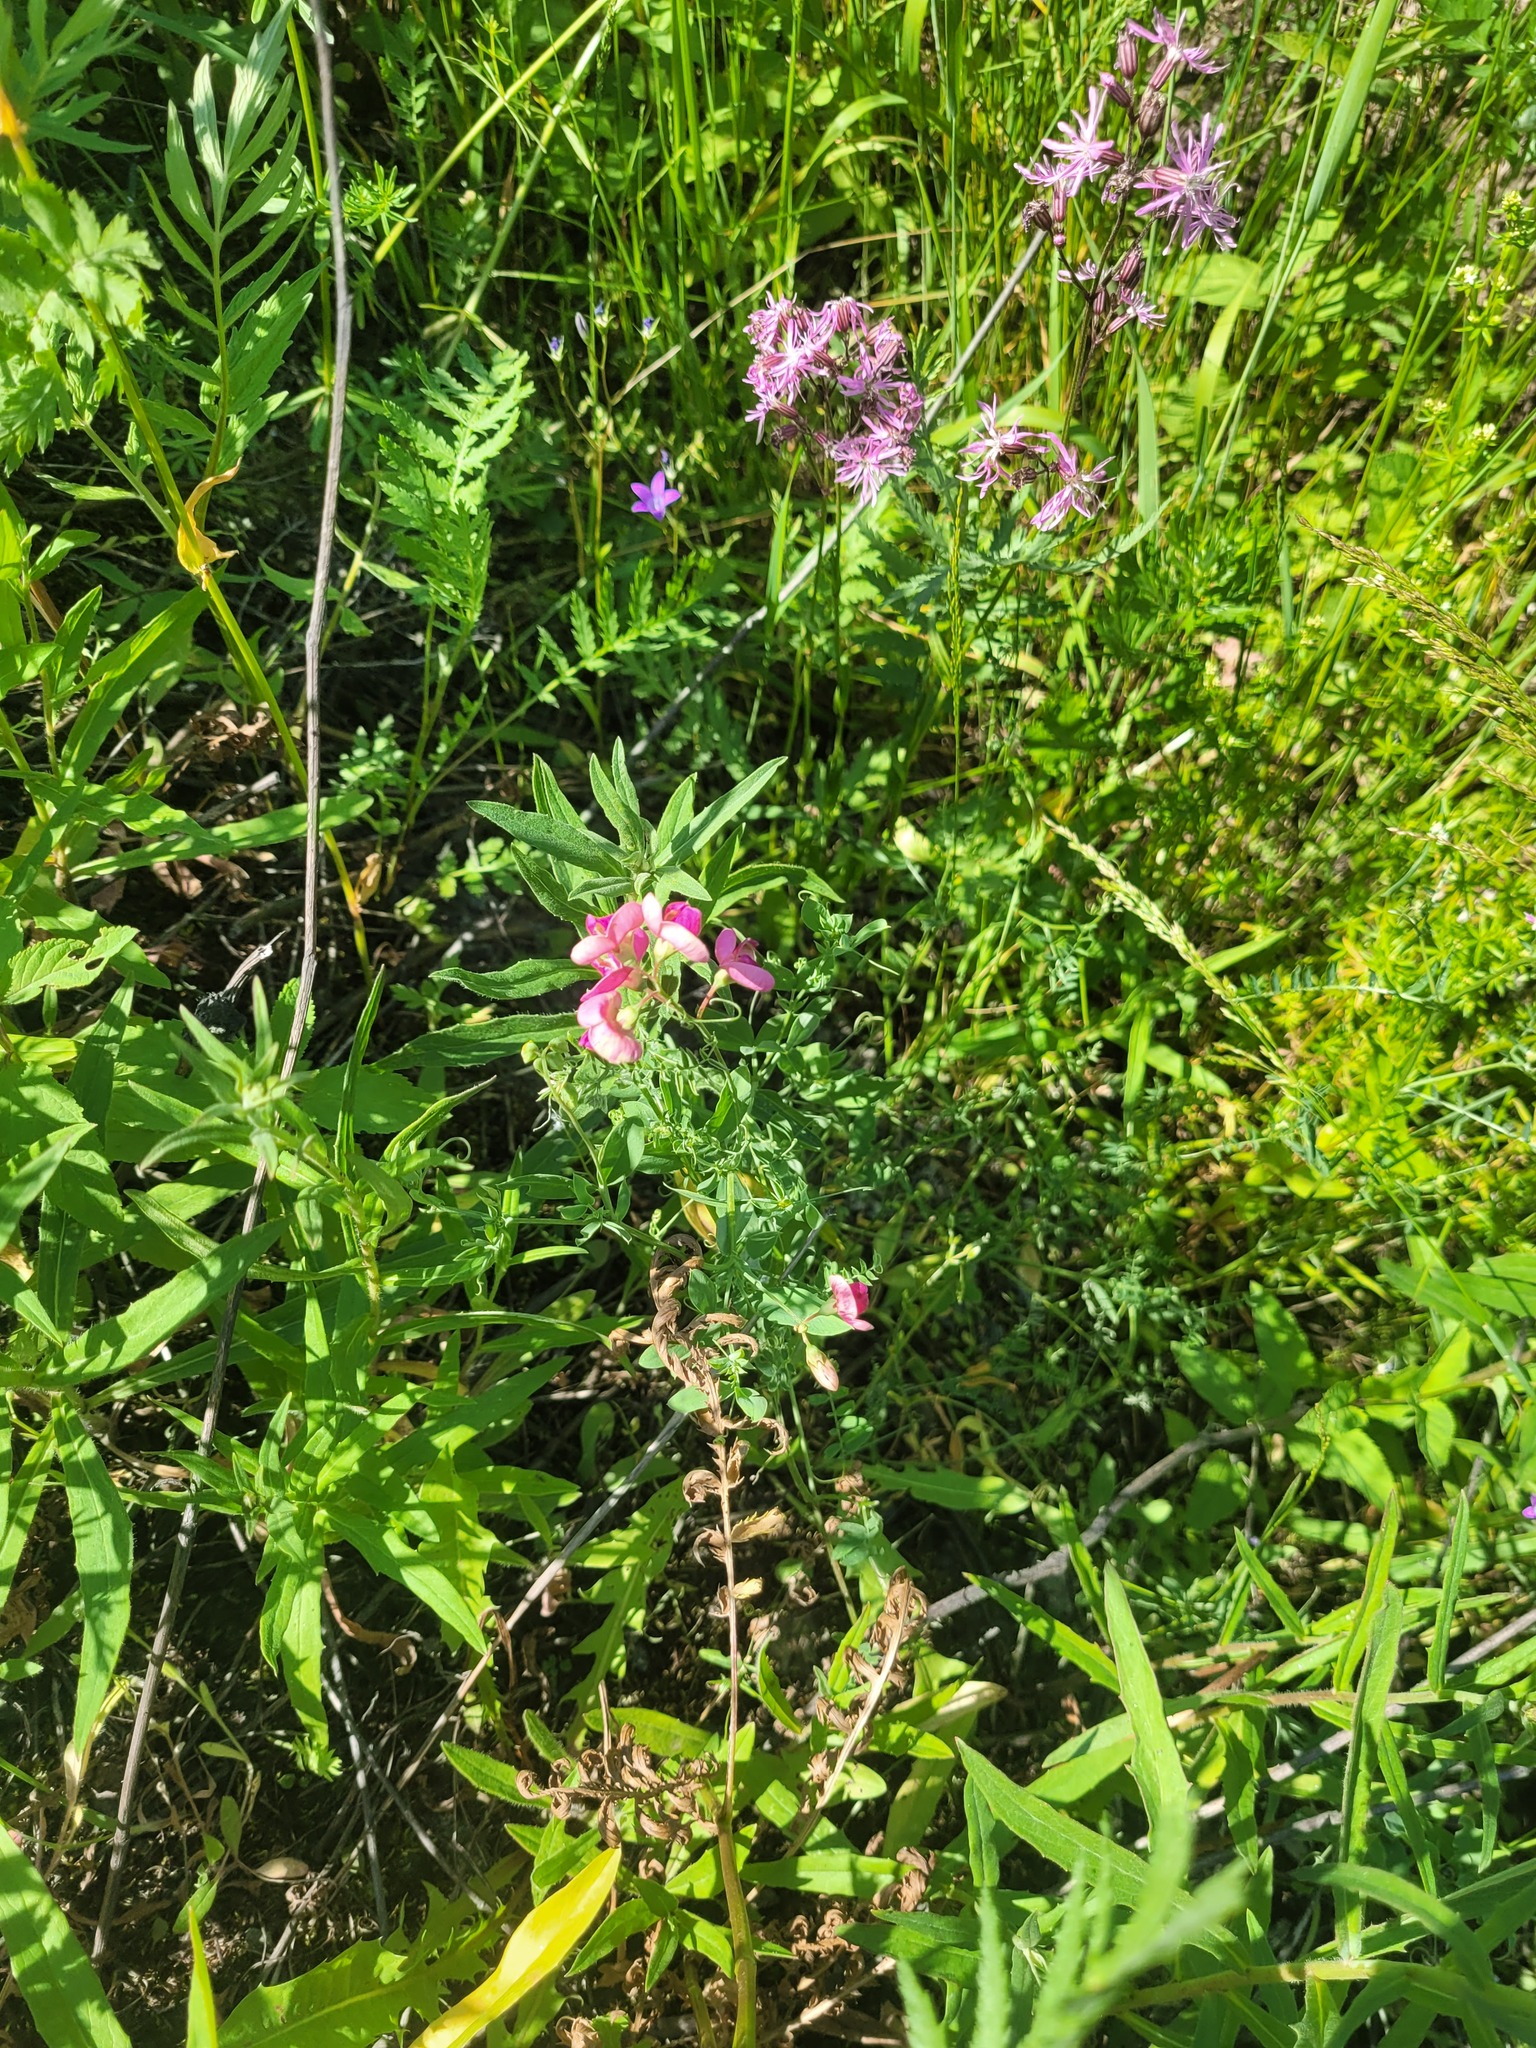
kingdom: Plantae
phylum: Tracheophyta
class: Magnoliopsida
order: Fabales
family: Fabaceae
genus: Lathyrus
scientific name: Lathyrus tuberosus
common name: Tuberous pea
